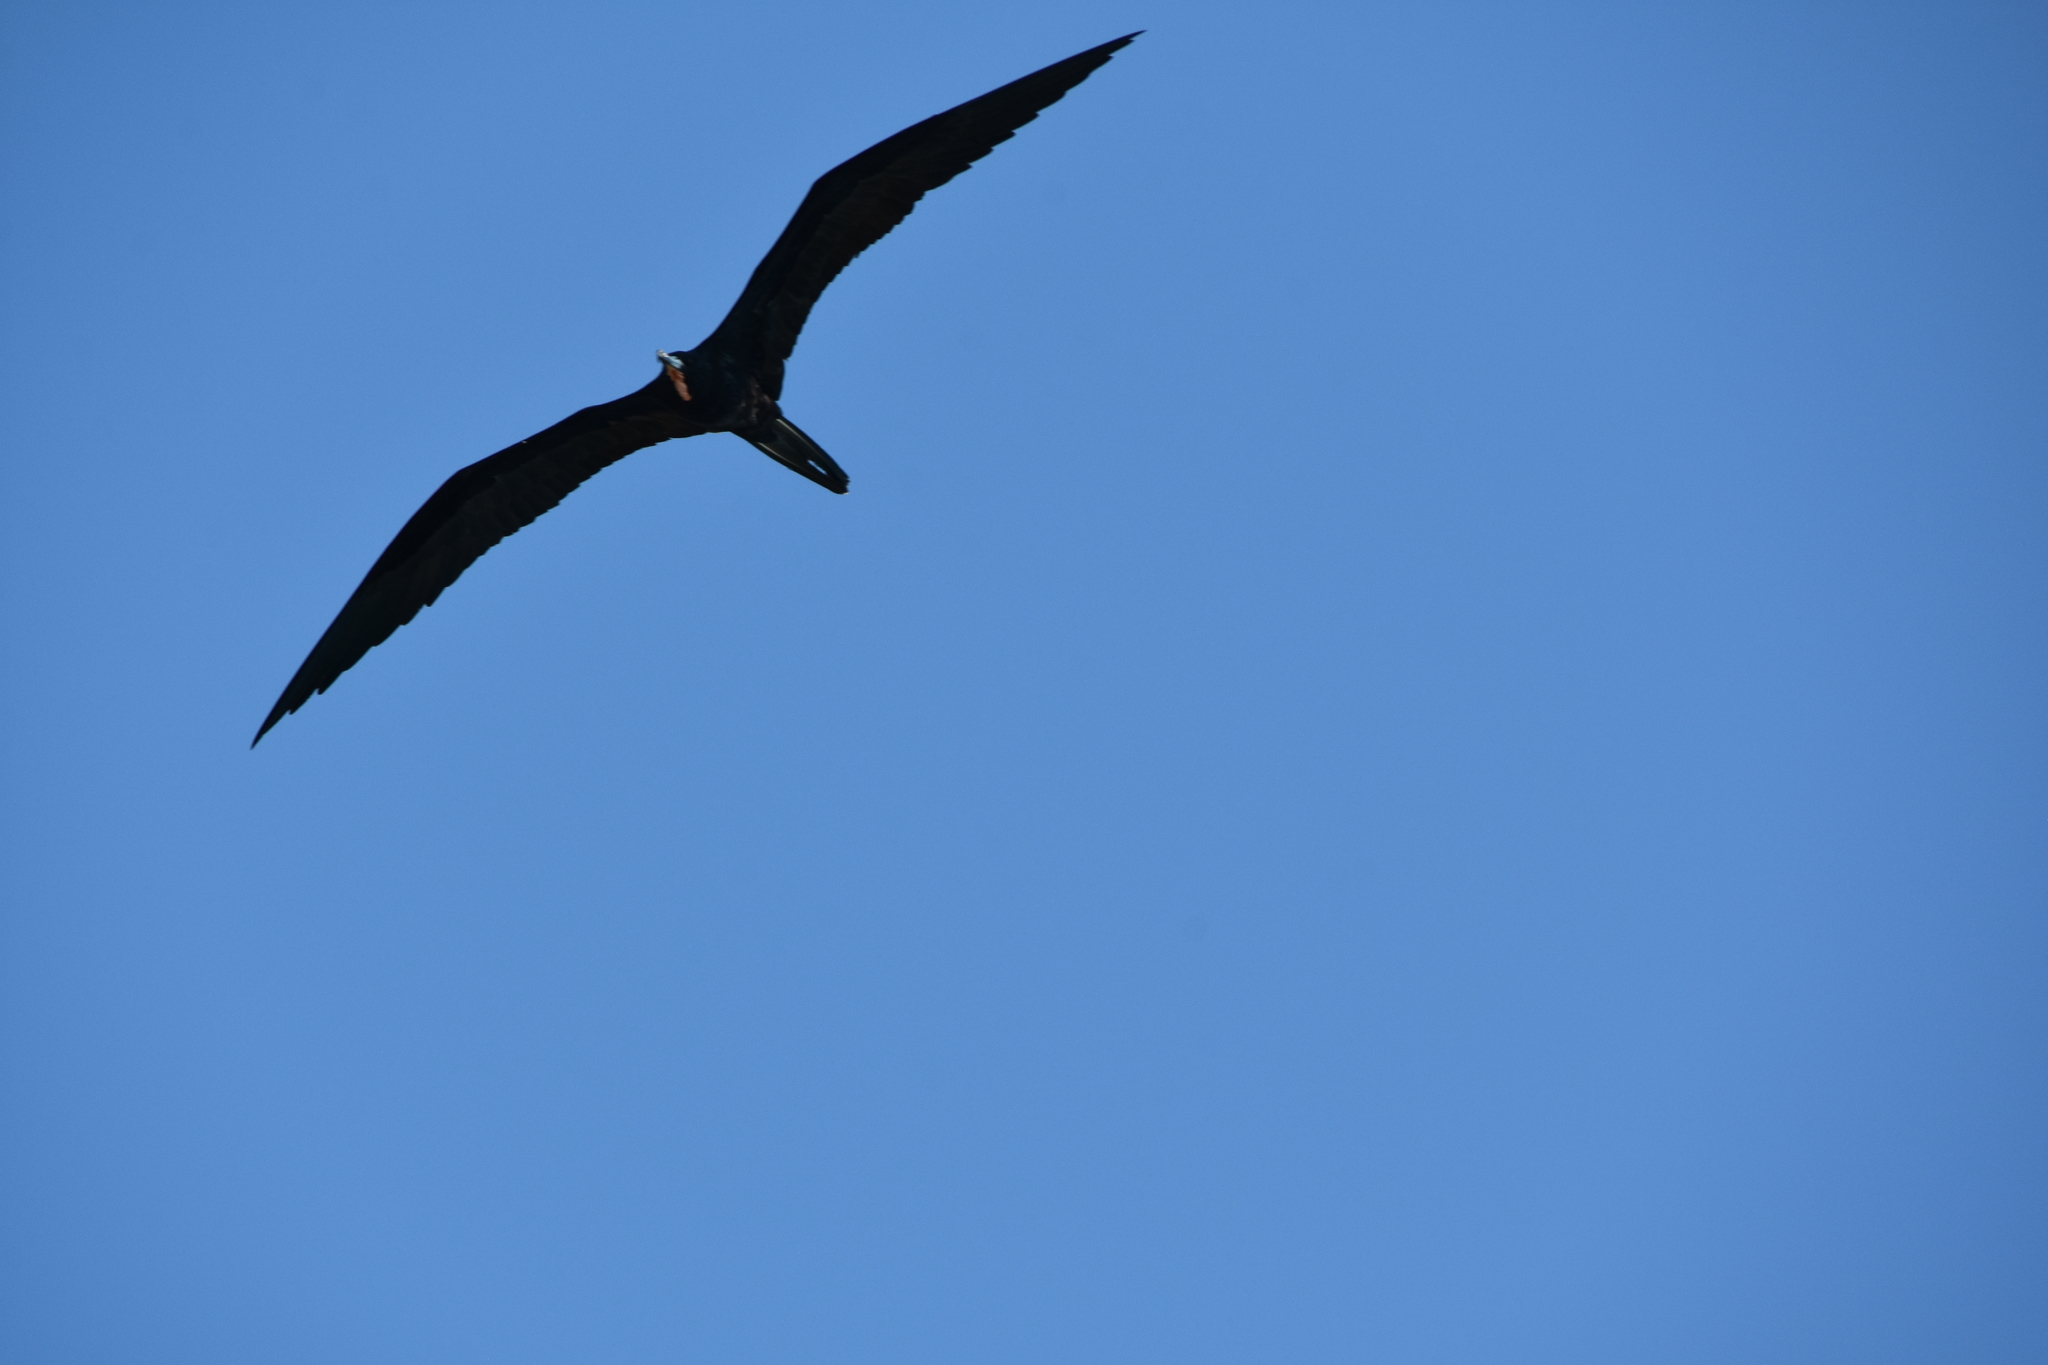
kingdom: Animalia
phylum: Chordata
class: Aves
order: Suliformes
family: Fregatidae
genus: Fregata
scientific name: Fregata magnificens
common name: Magnificent frigatebird
